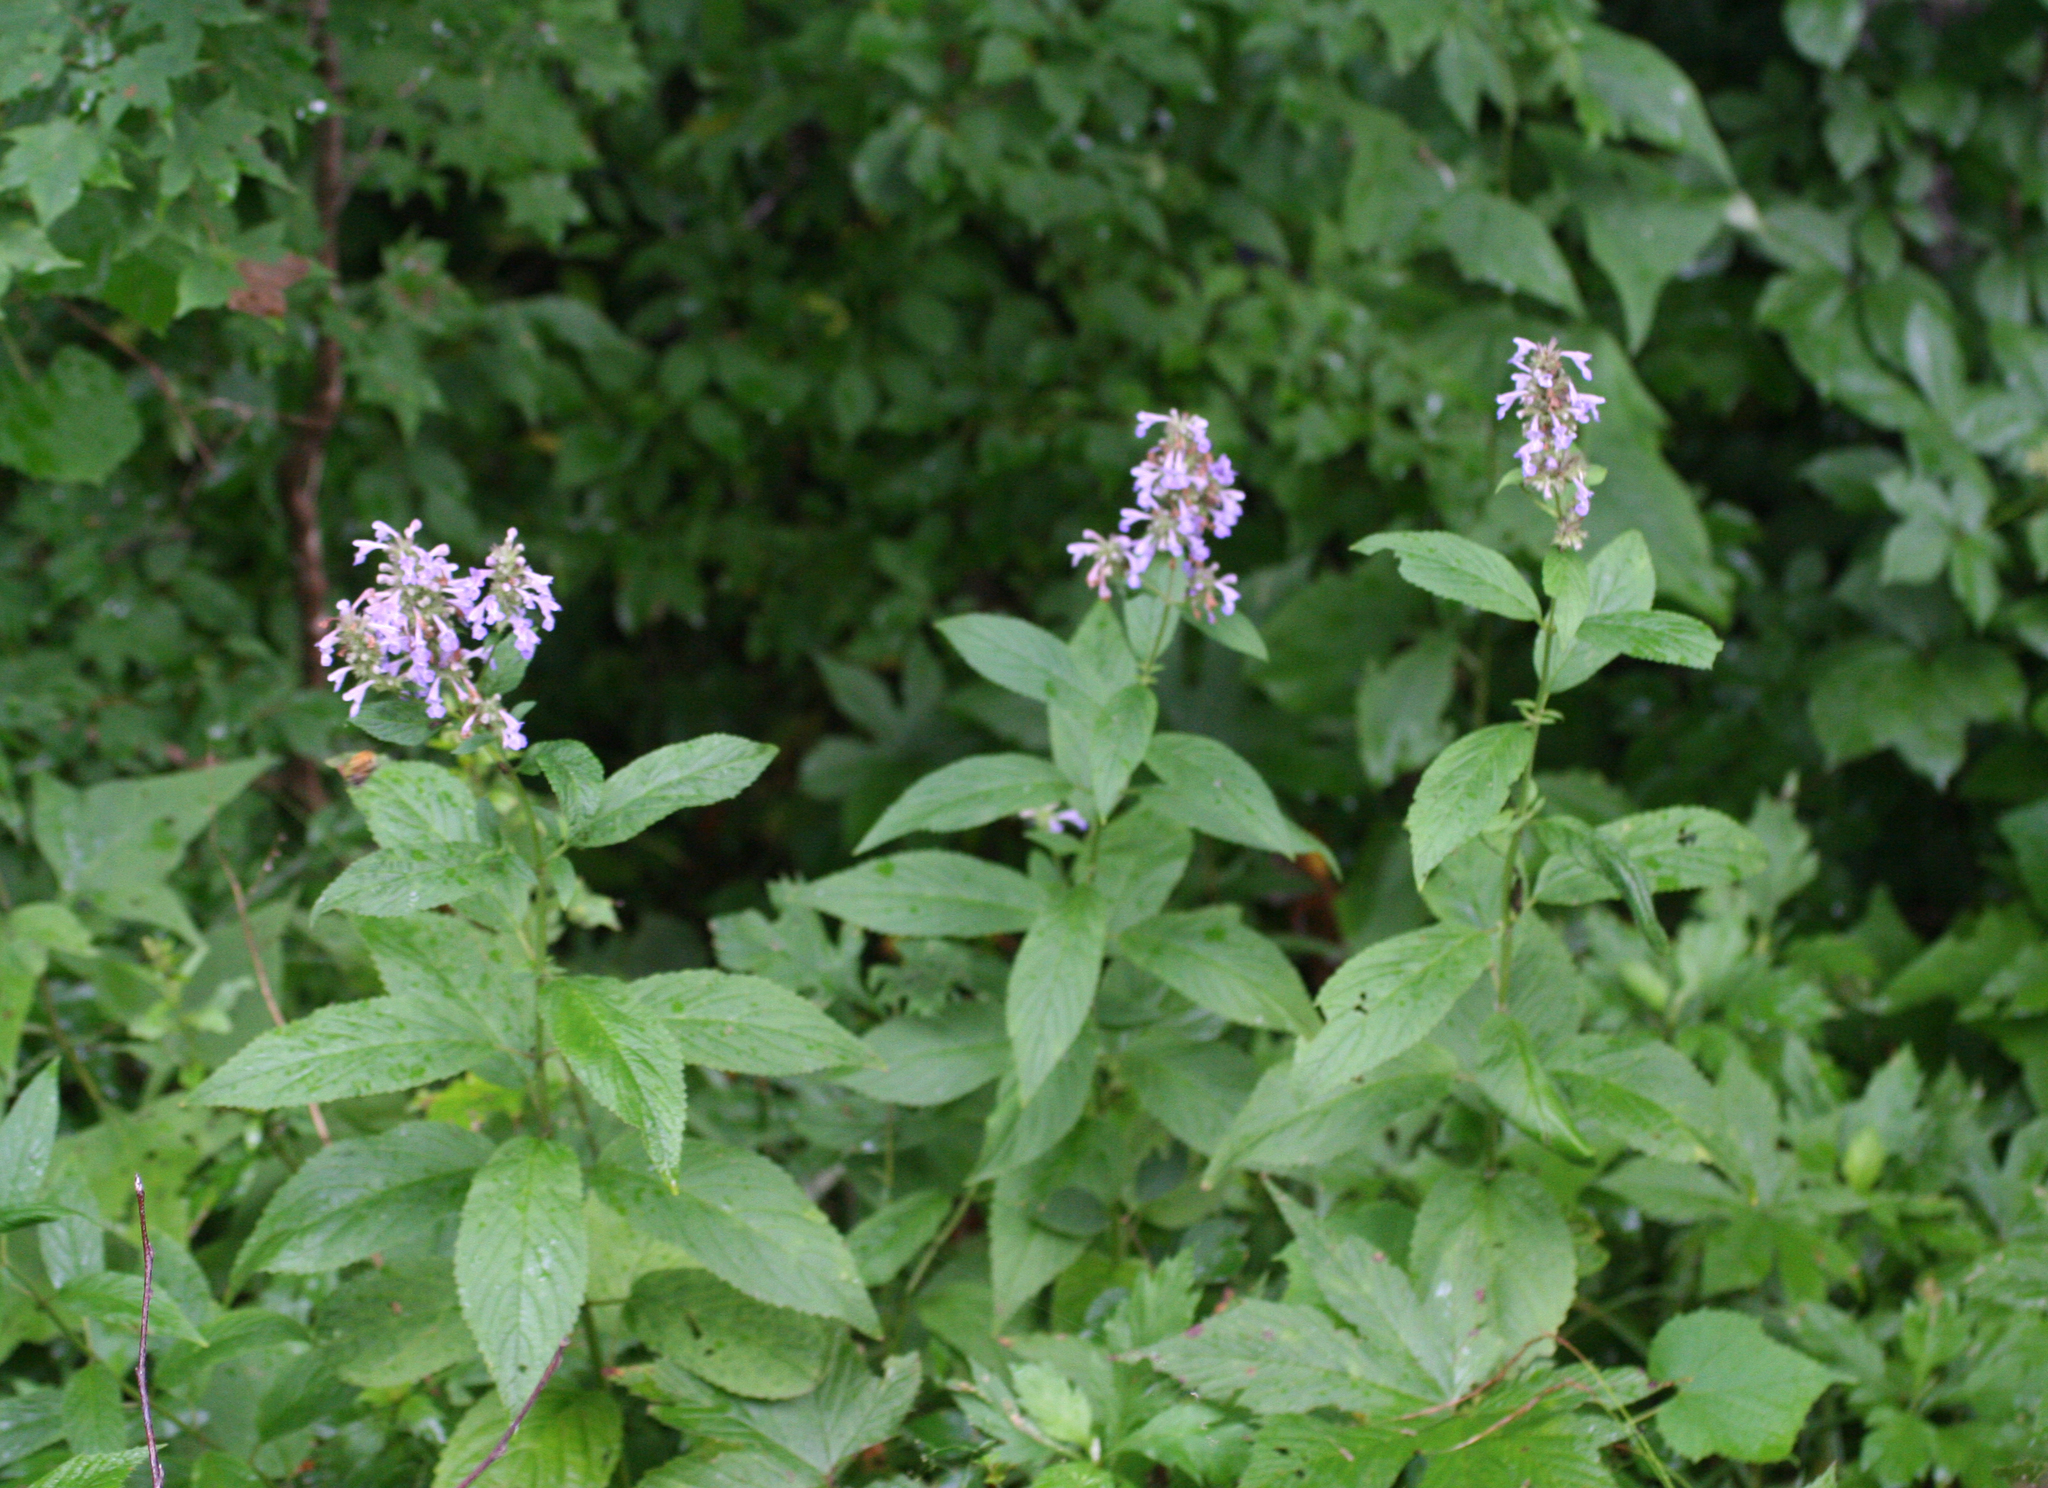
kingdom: Plantae
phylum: Tracheophyta
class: Magnoliopsida
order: Lamiales
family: Lamiaceae
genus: Nepeta
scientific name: Nepeta manchuriensis
